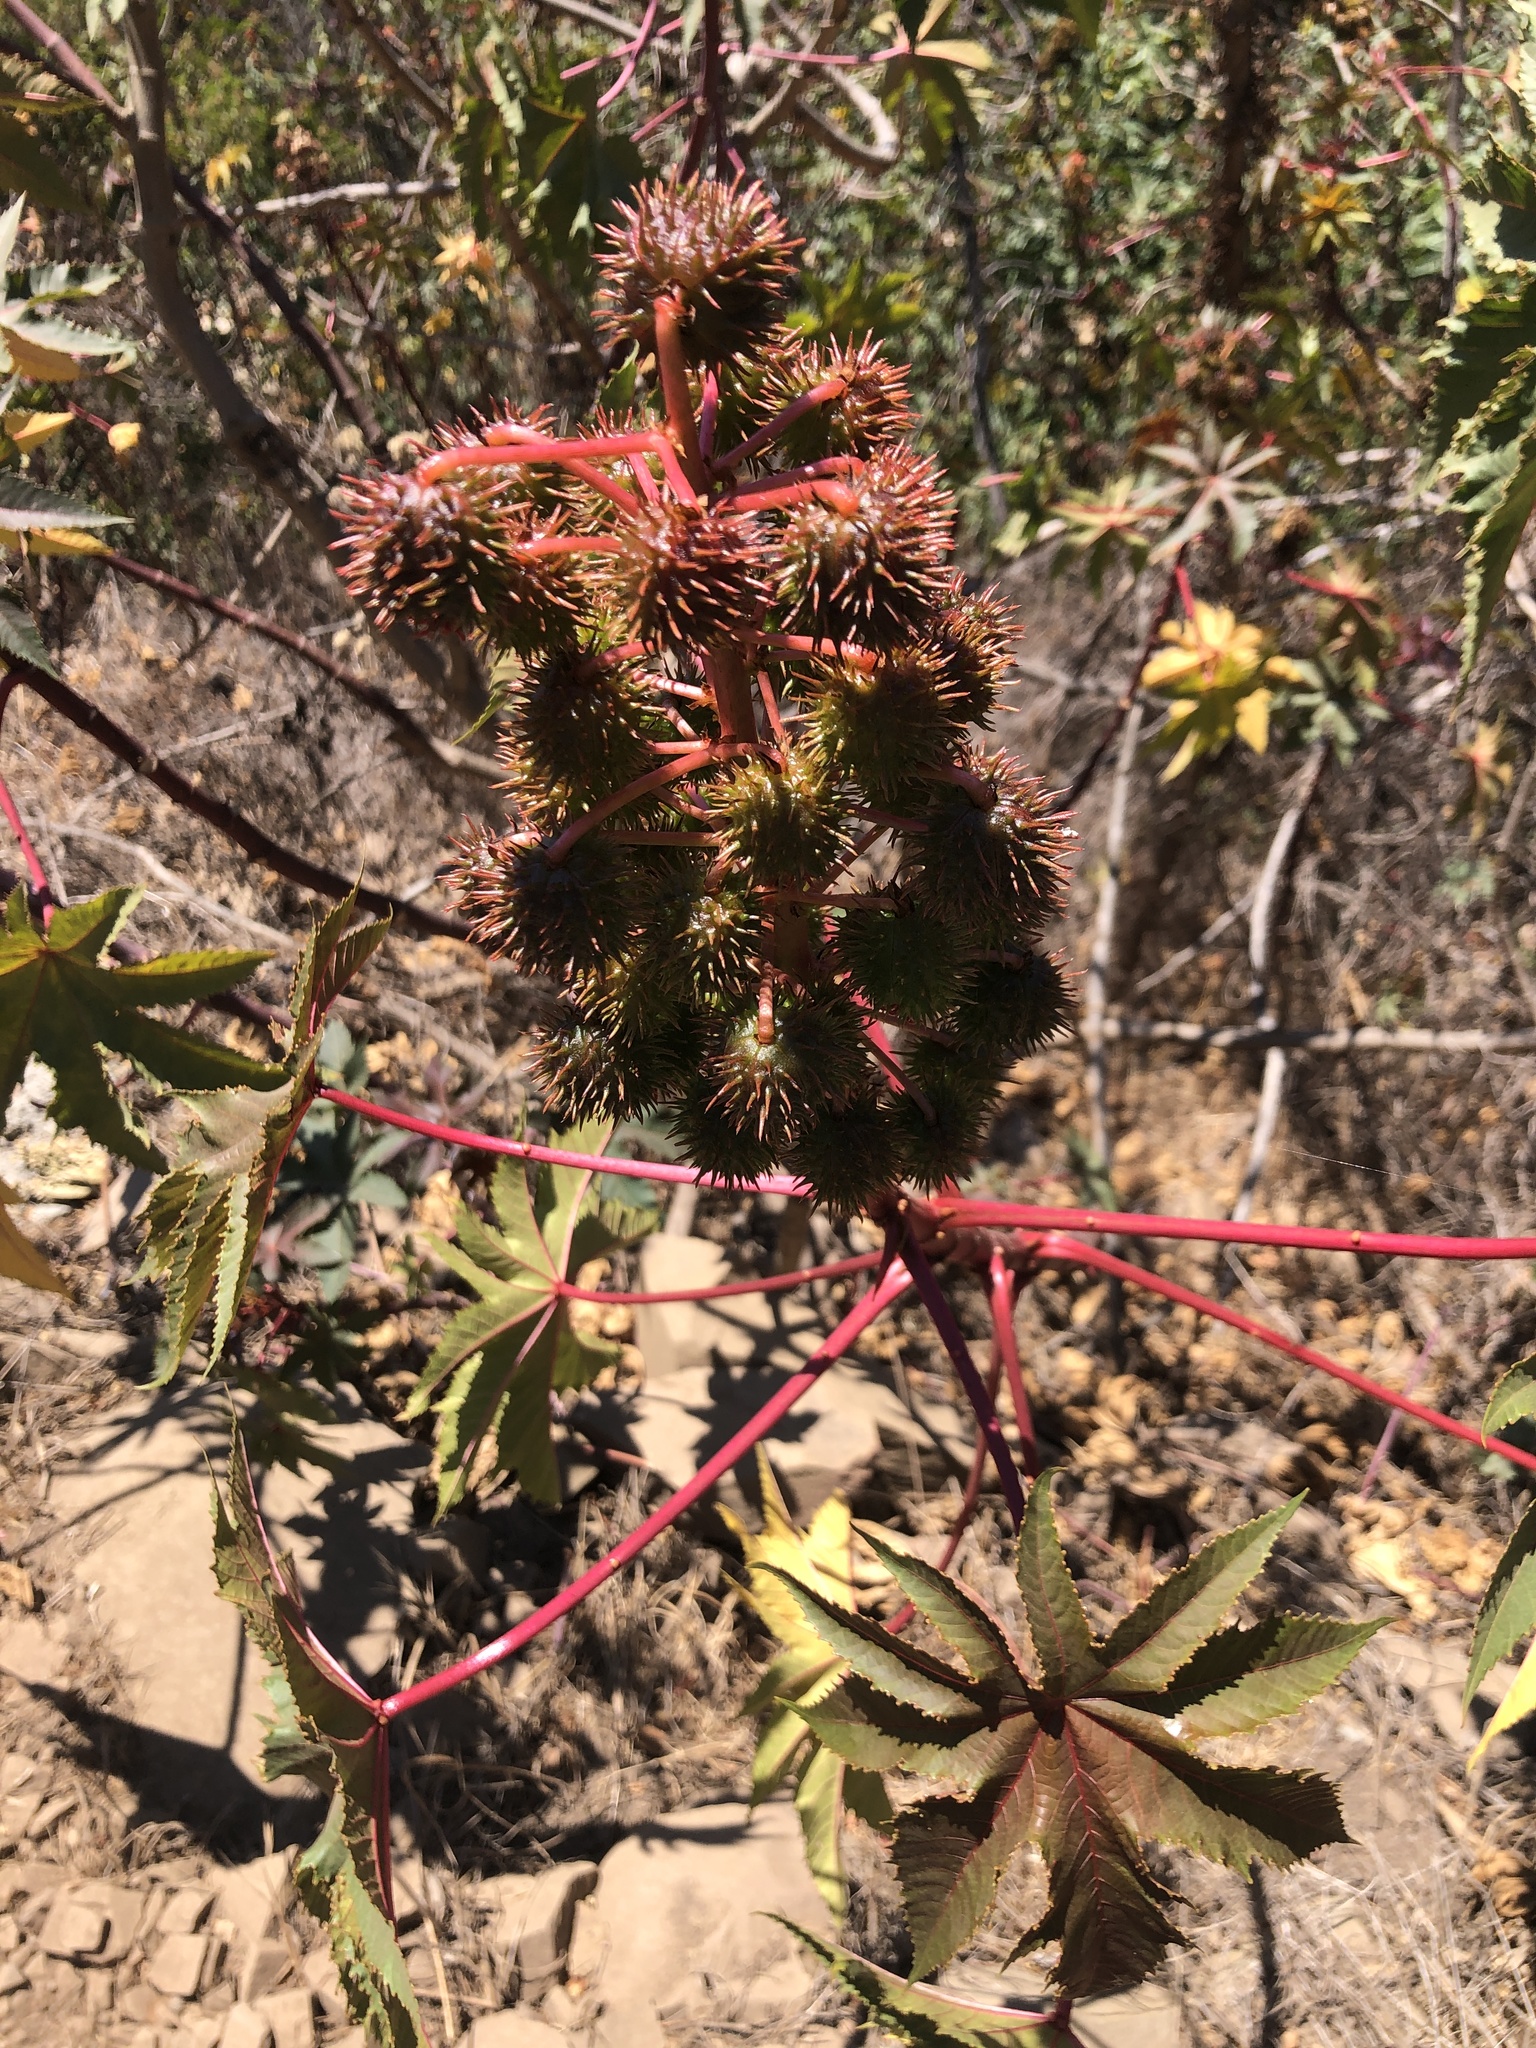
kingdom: Plantae
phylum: Tracheophyta
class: Magnoliopsida
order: Malpighiales
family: Euphorbiaceae
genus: Ricinus
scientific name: Ricinus communis
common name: Castor-oil-plant
